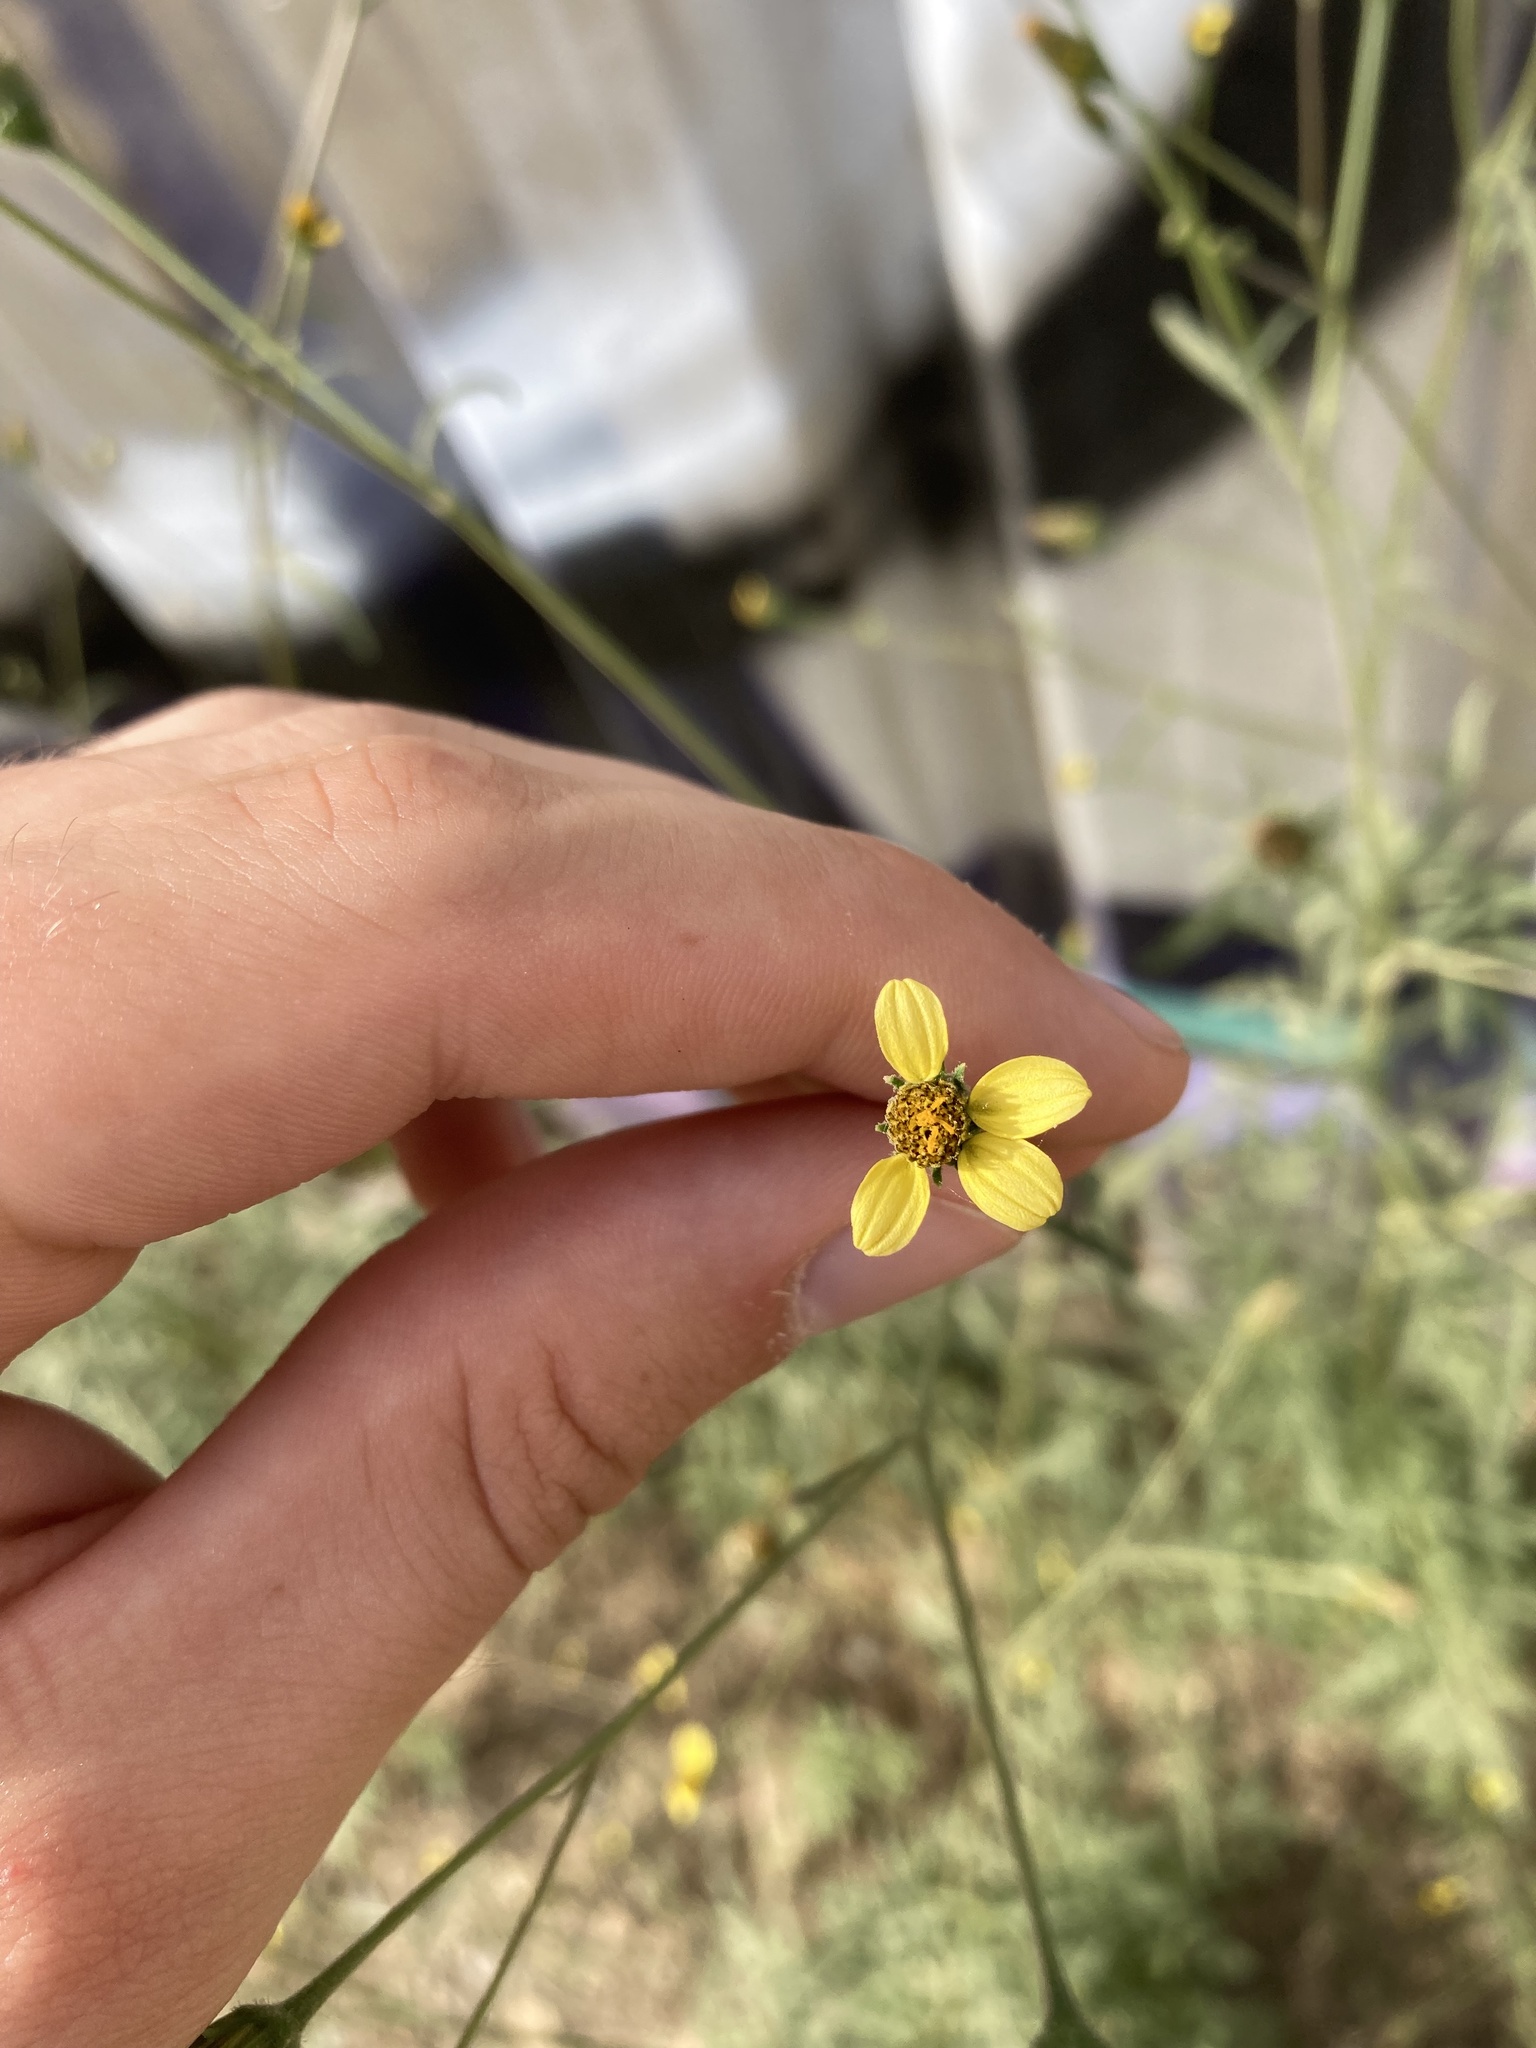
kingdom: Plantae
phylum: Tracheophyta
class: Magnoliopsida
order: Asterales
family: Asteraceae
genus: Bidens
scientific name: Bidens subalternans
